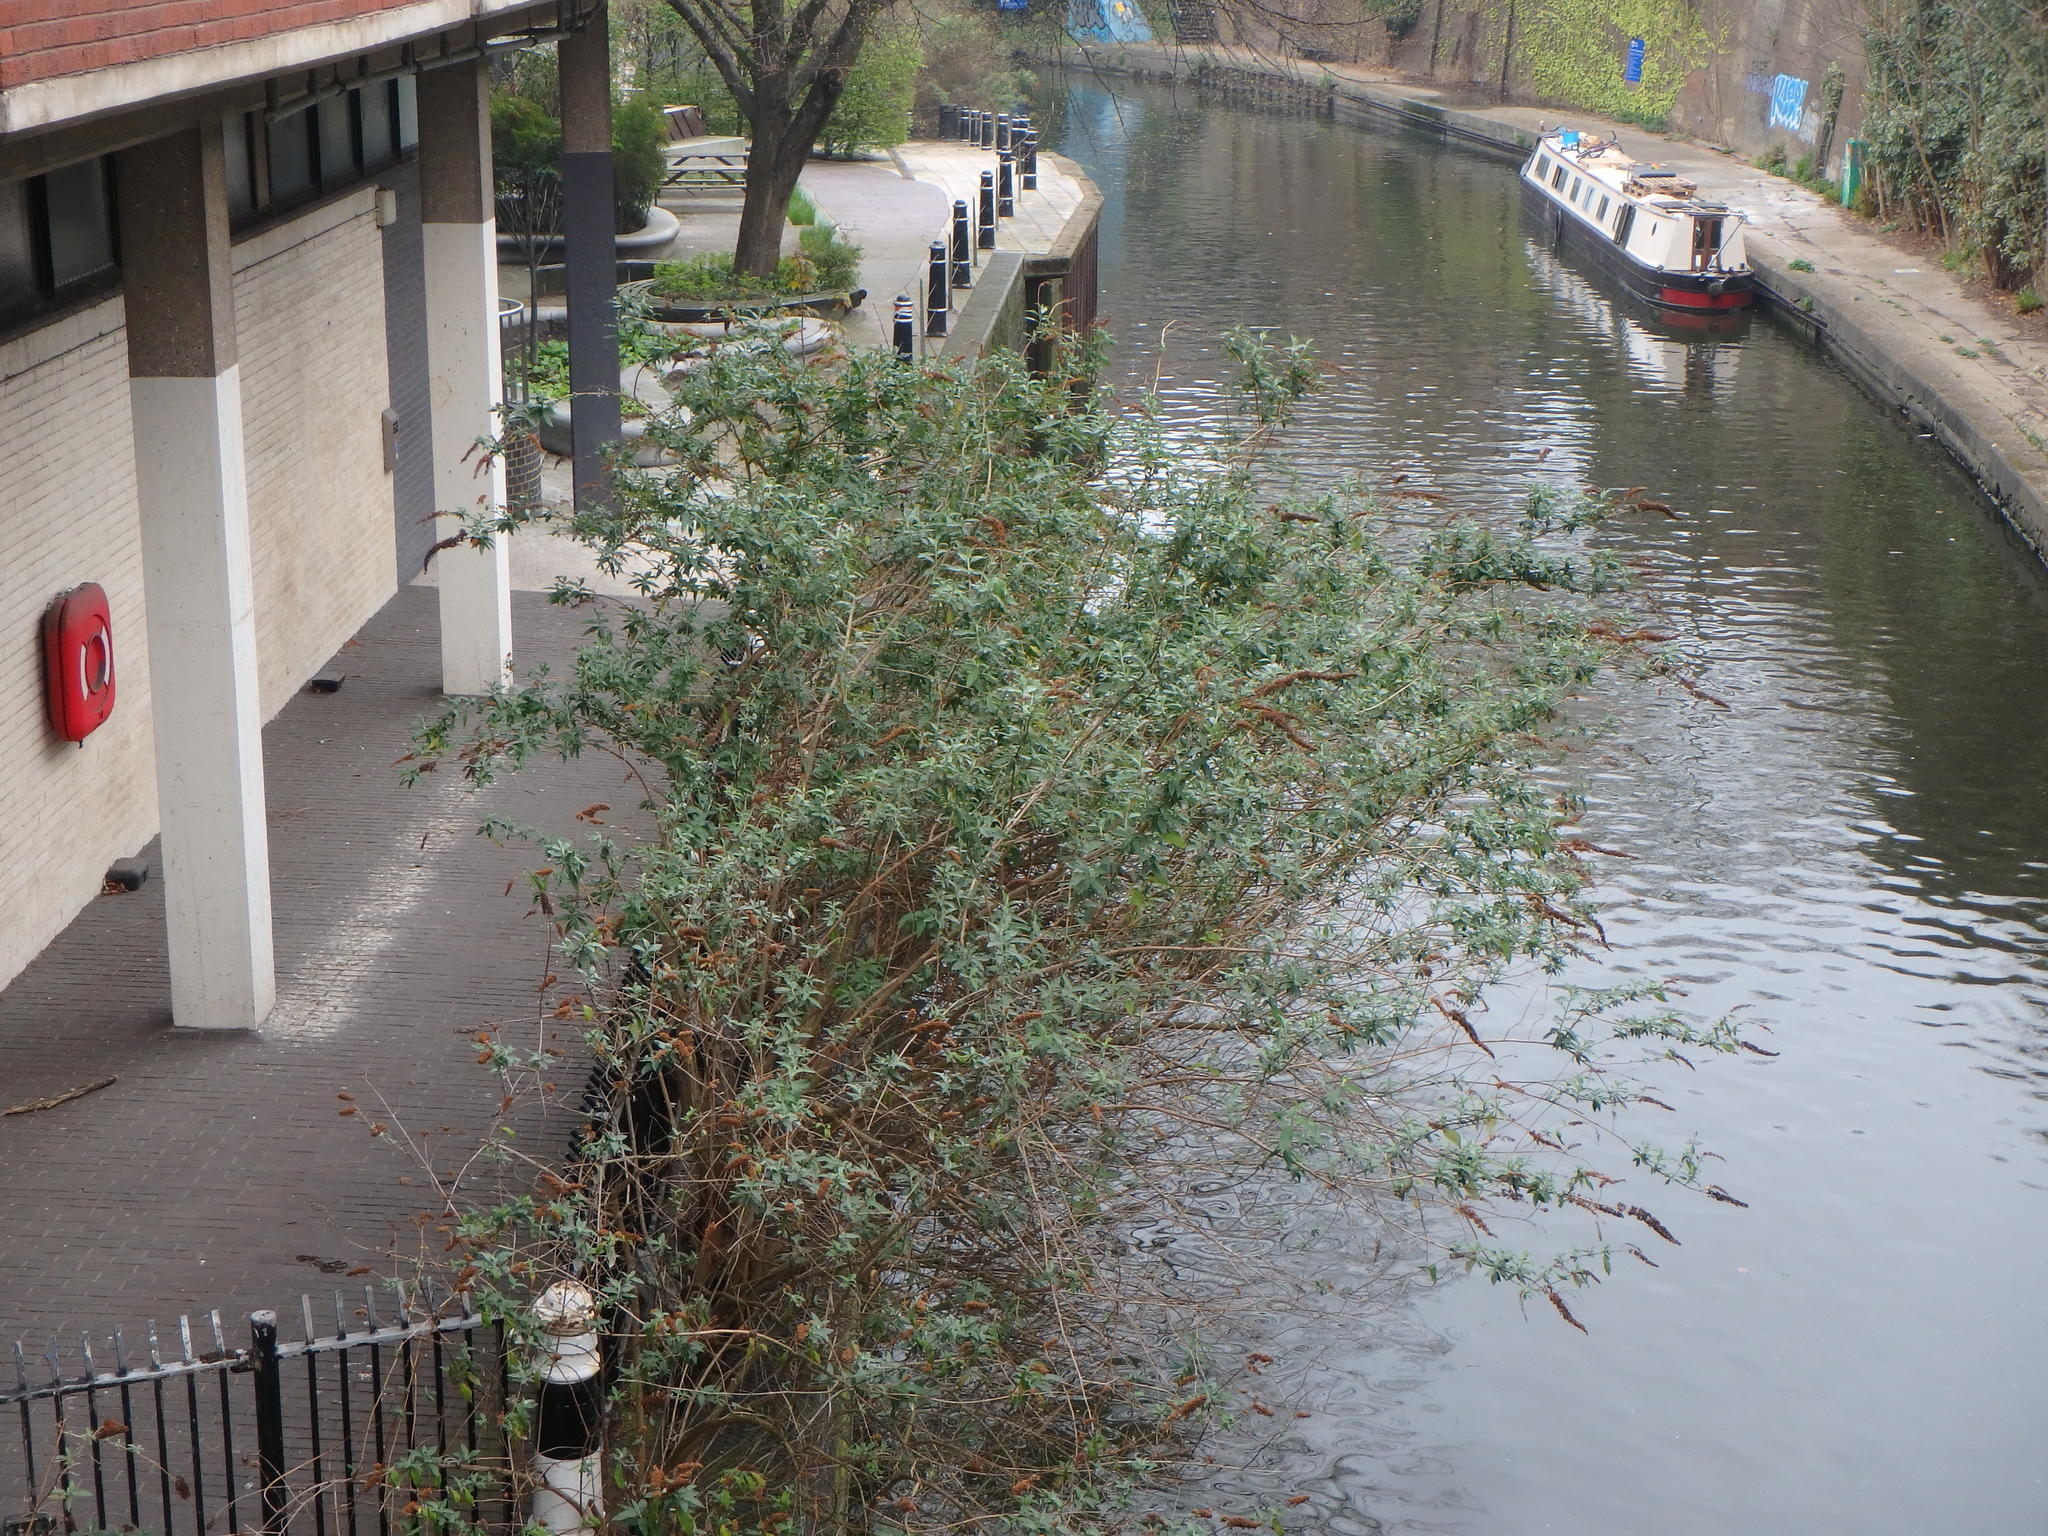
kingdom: Plantae
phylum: Tracheophyta
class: Magnoliopsida
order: Lamiales
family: Scrophulariaceae
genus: Buddleja
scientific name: Buddleja davidii
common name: Butterfly-bush
